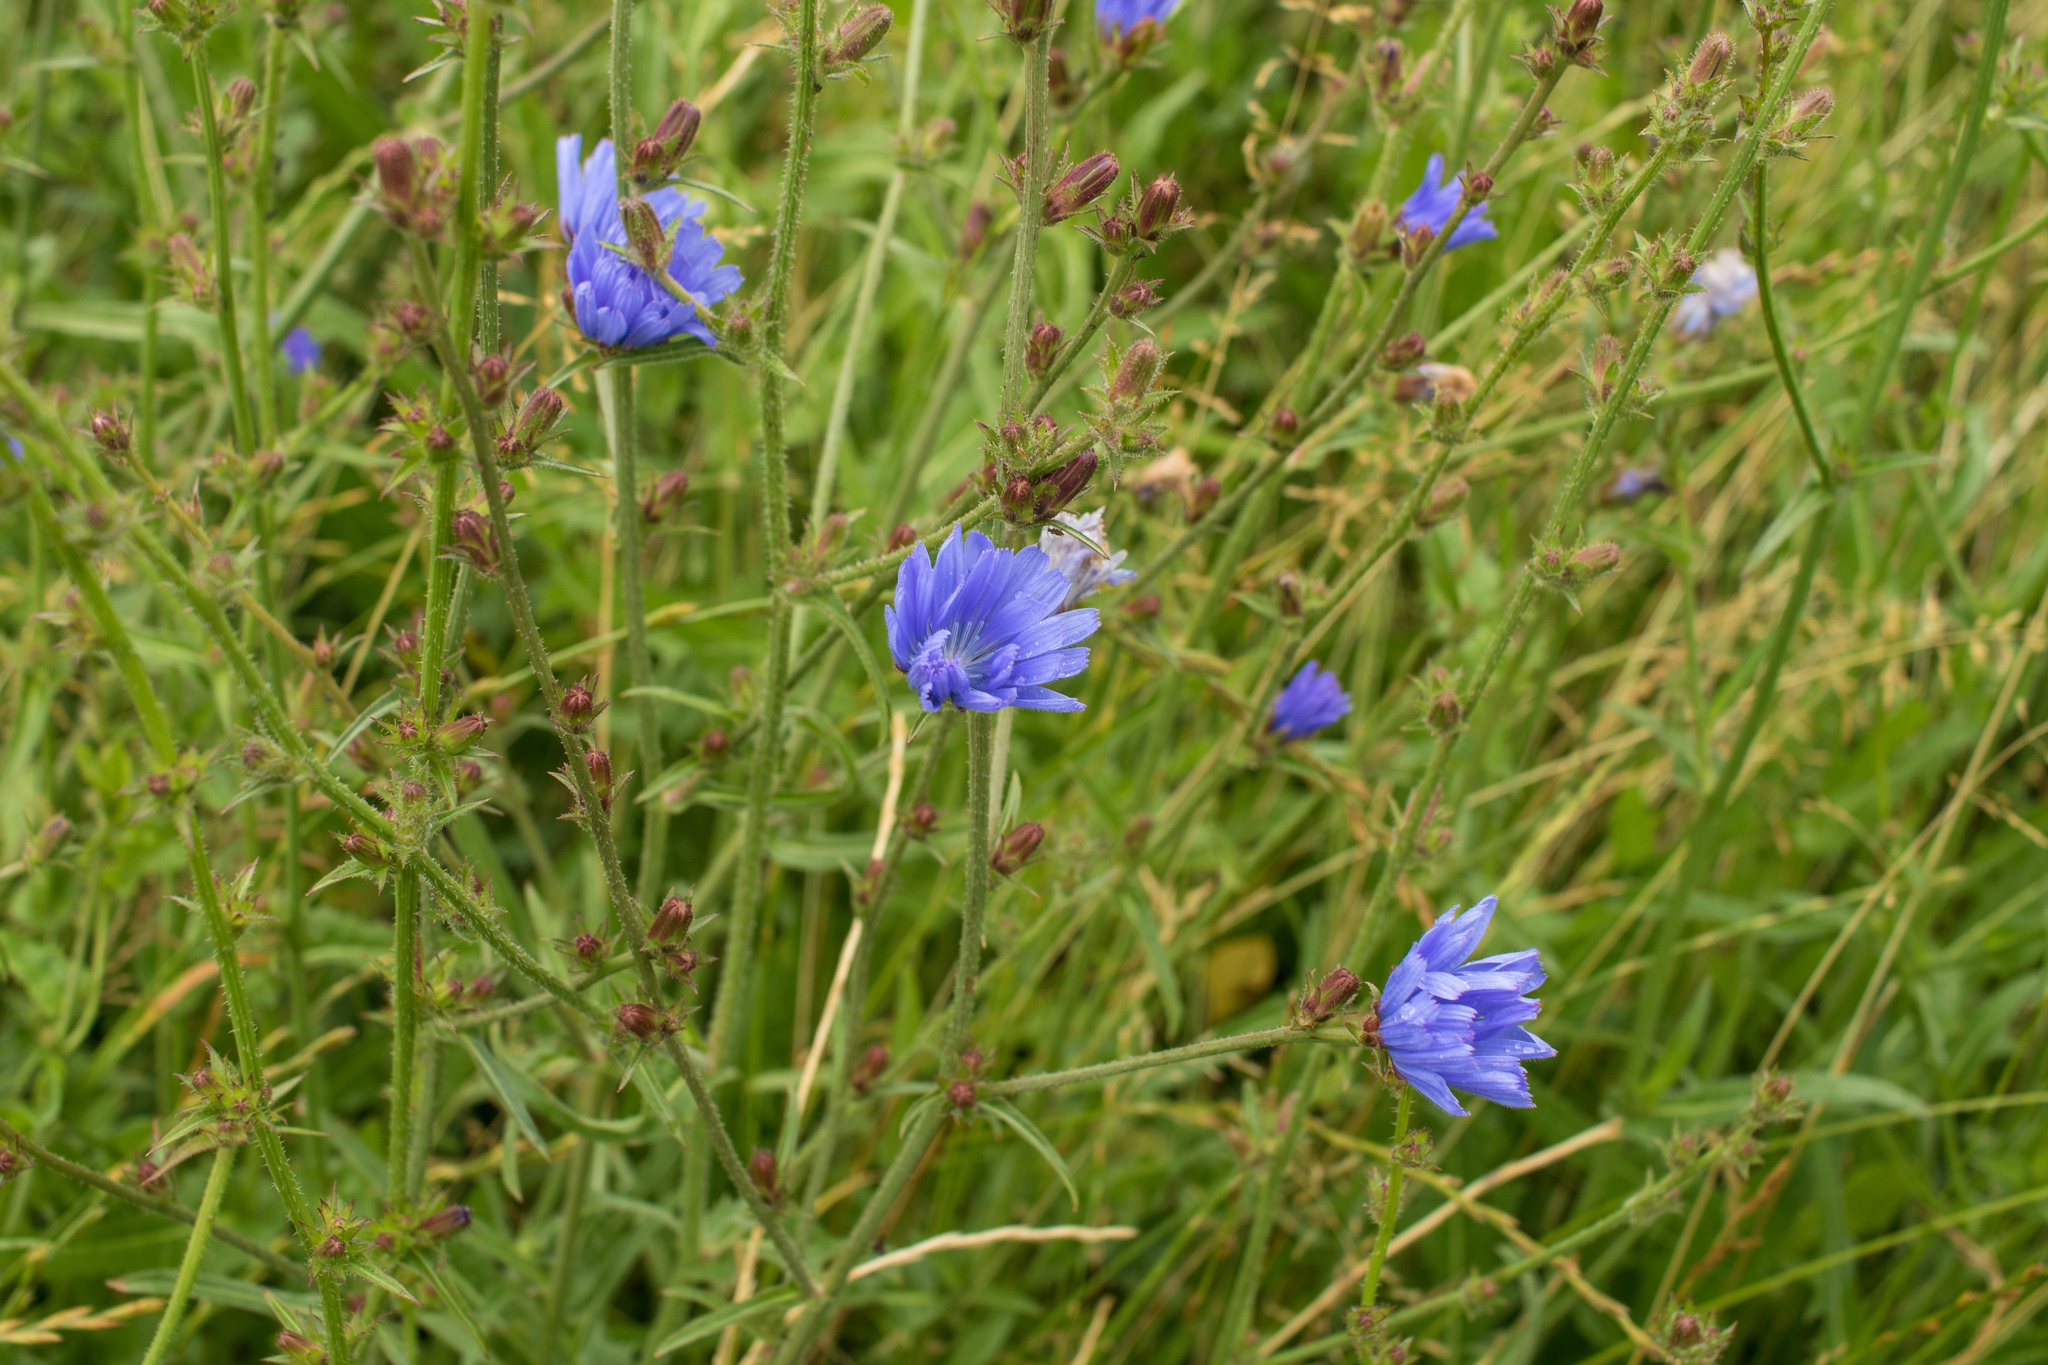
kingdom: Plantae
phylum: Tracheophyta
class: Magnoliopsida
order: Asterales
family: Asteraceae
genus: Cichorium
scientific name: Cichorium intybus
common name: Chicory
